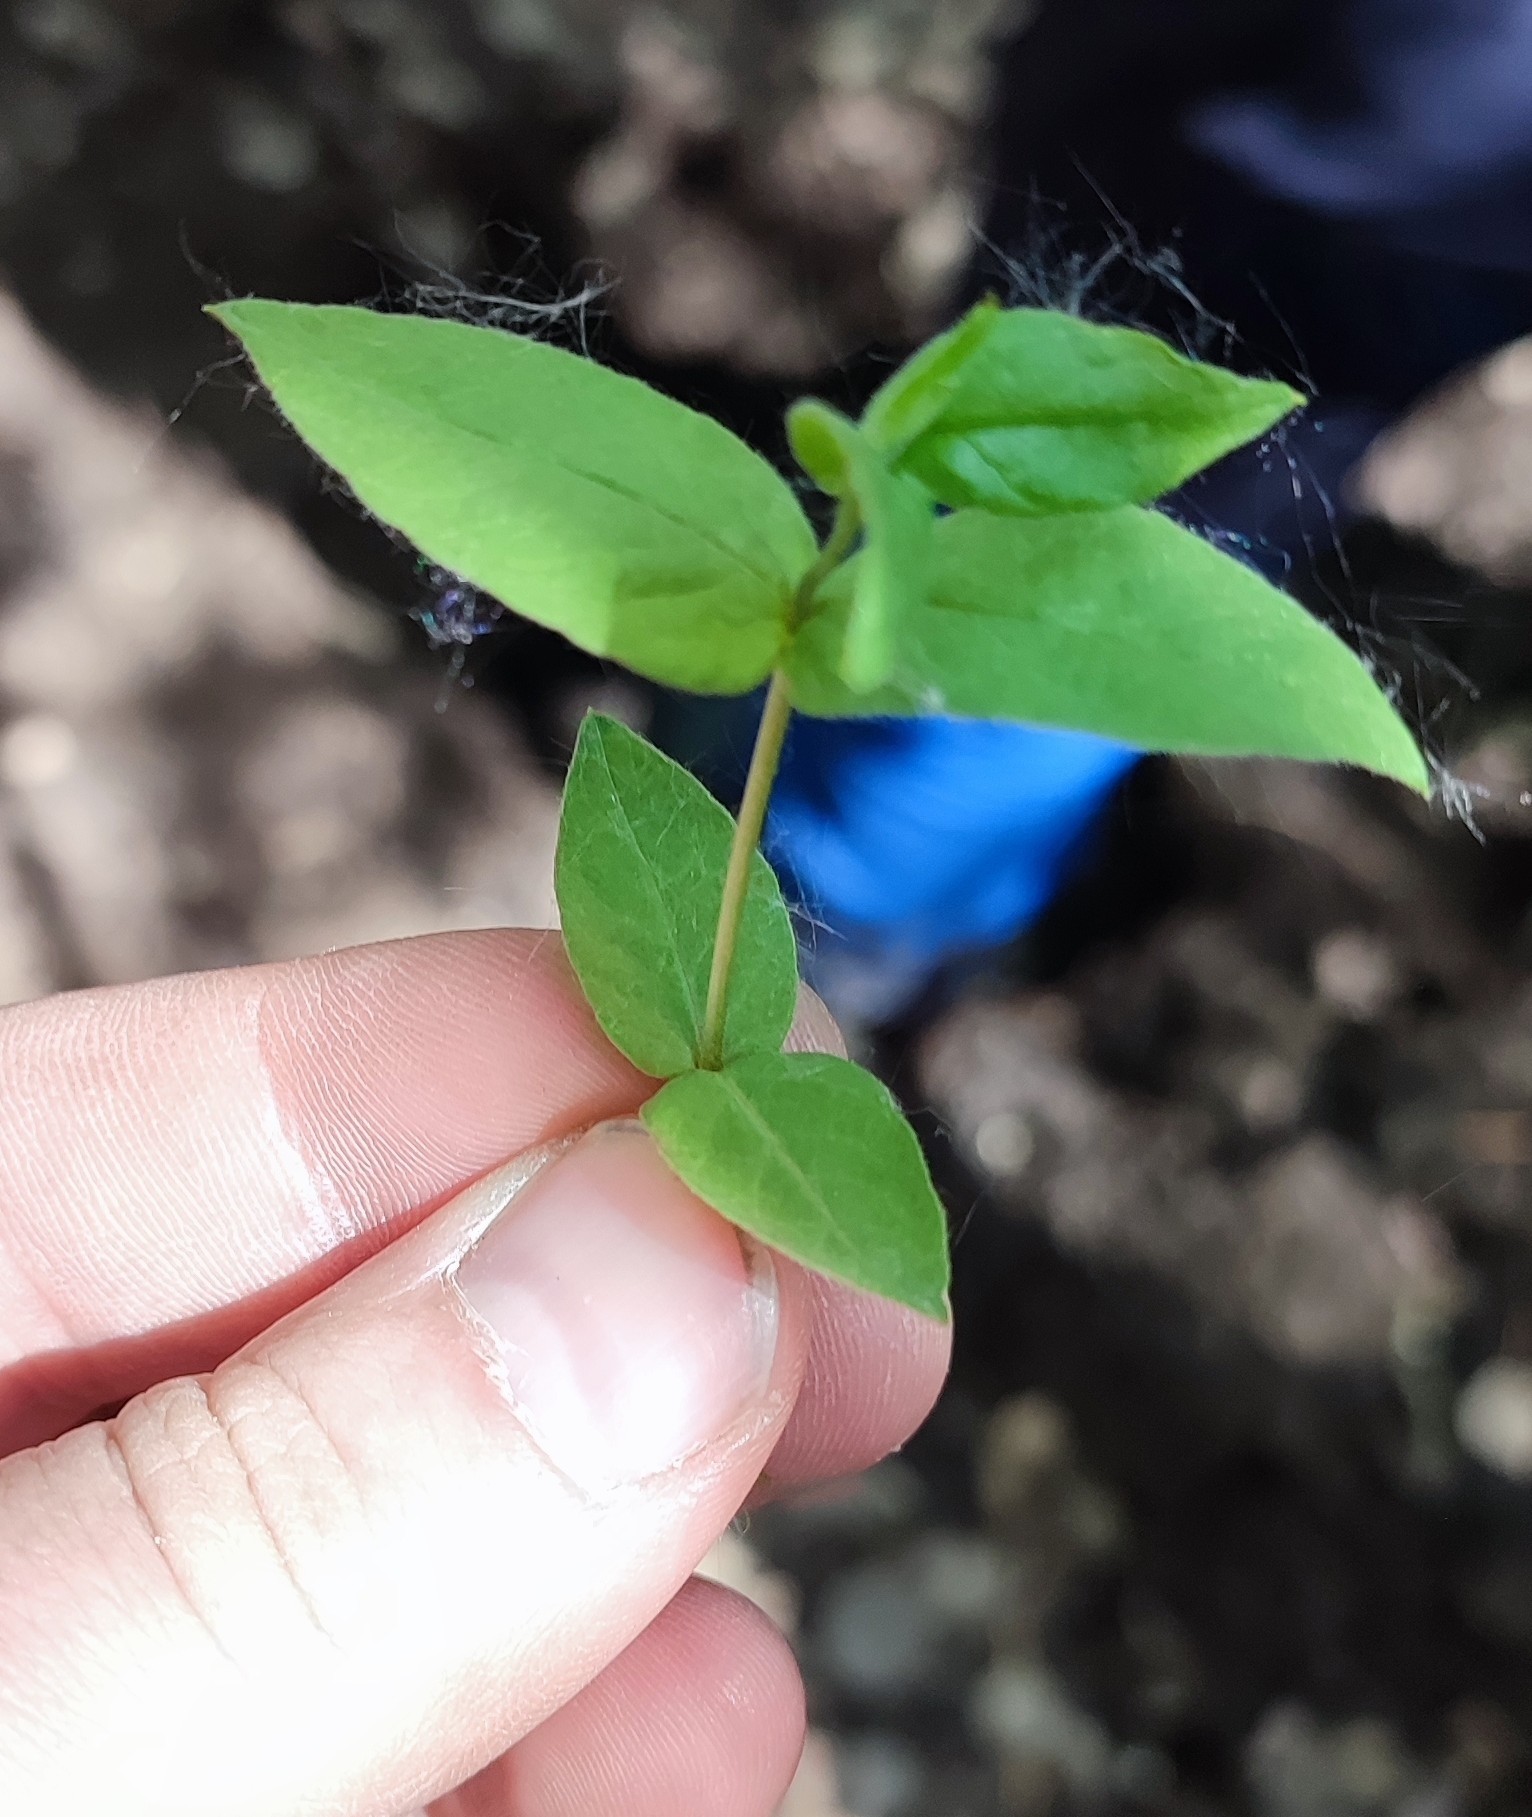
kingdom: Plantae
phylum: Tracheophyta
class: Magnoliopsida
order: Caryophyllales
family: Caryophyllaceae
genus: Stellaria
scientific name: Stellaria bungeana
